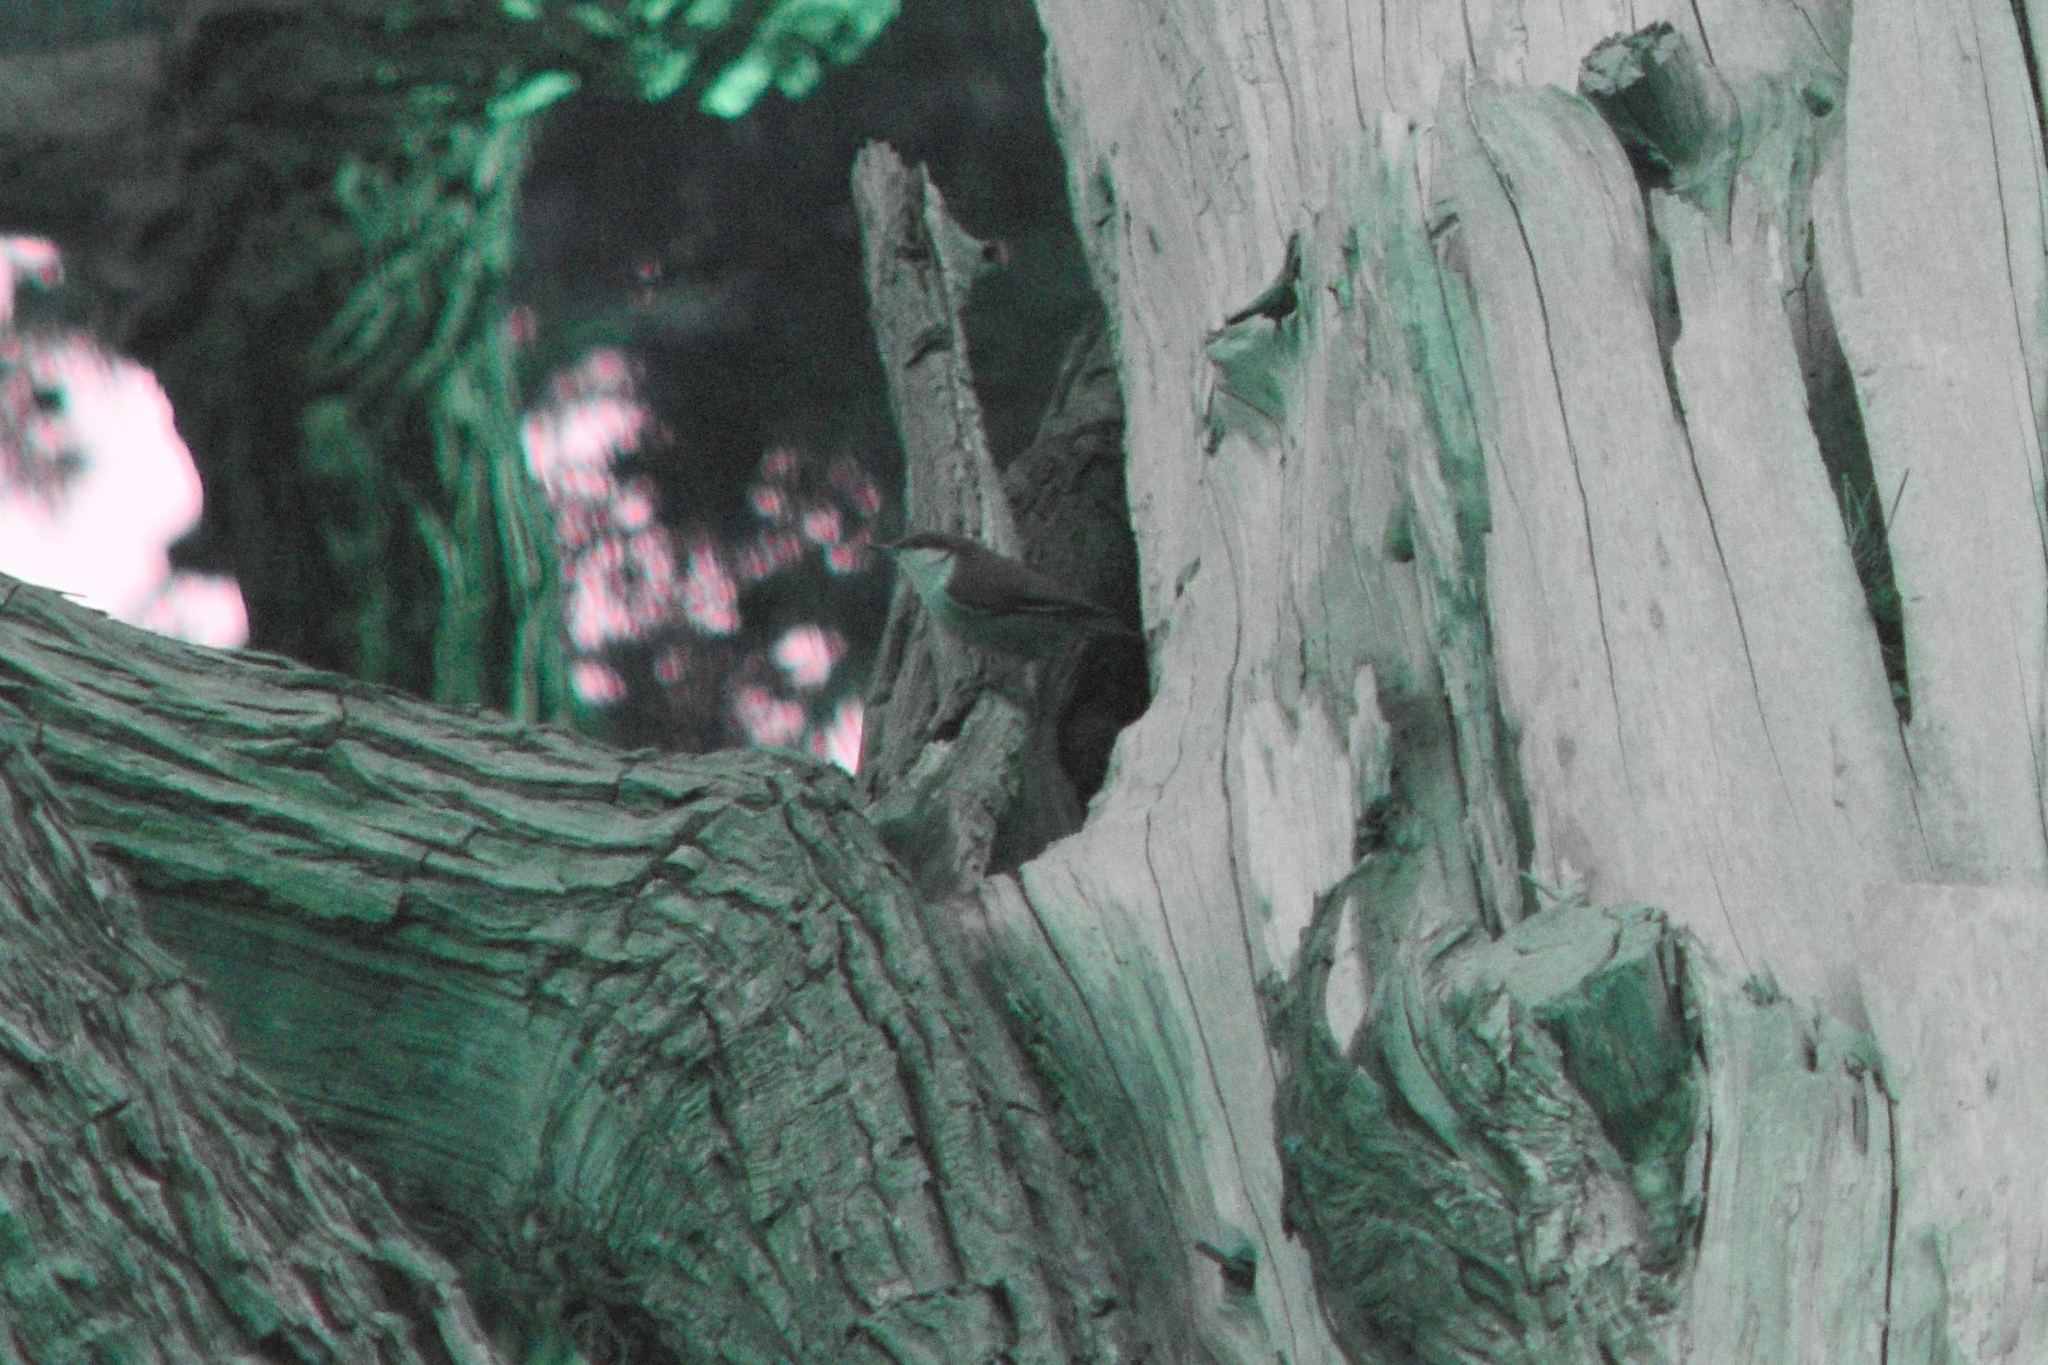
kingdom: Animalia
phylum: Chordata
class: Aves
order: Passeriformes
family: Sittidae
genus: Sitta
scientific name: Sitta pygmaea
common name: Pygmy nuthatch
